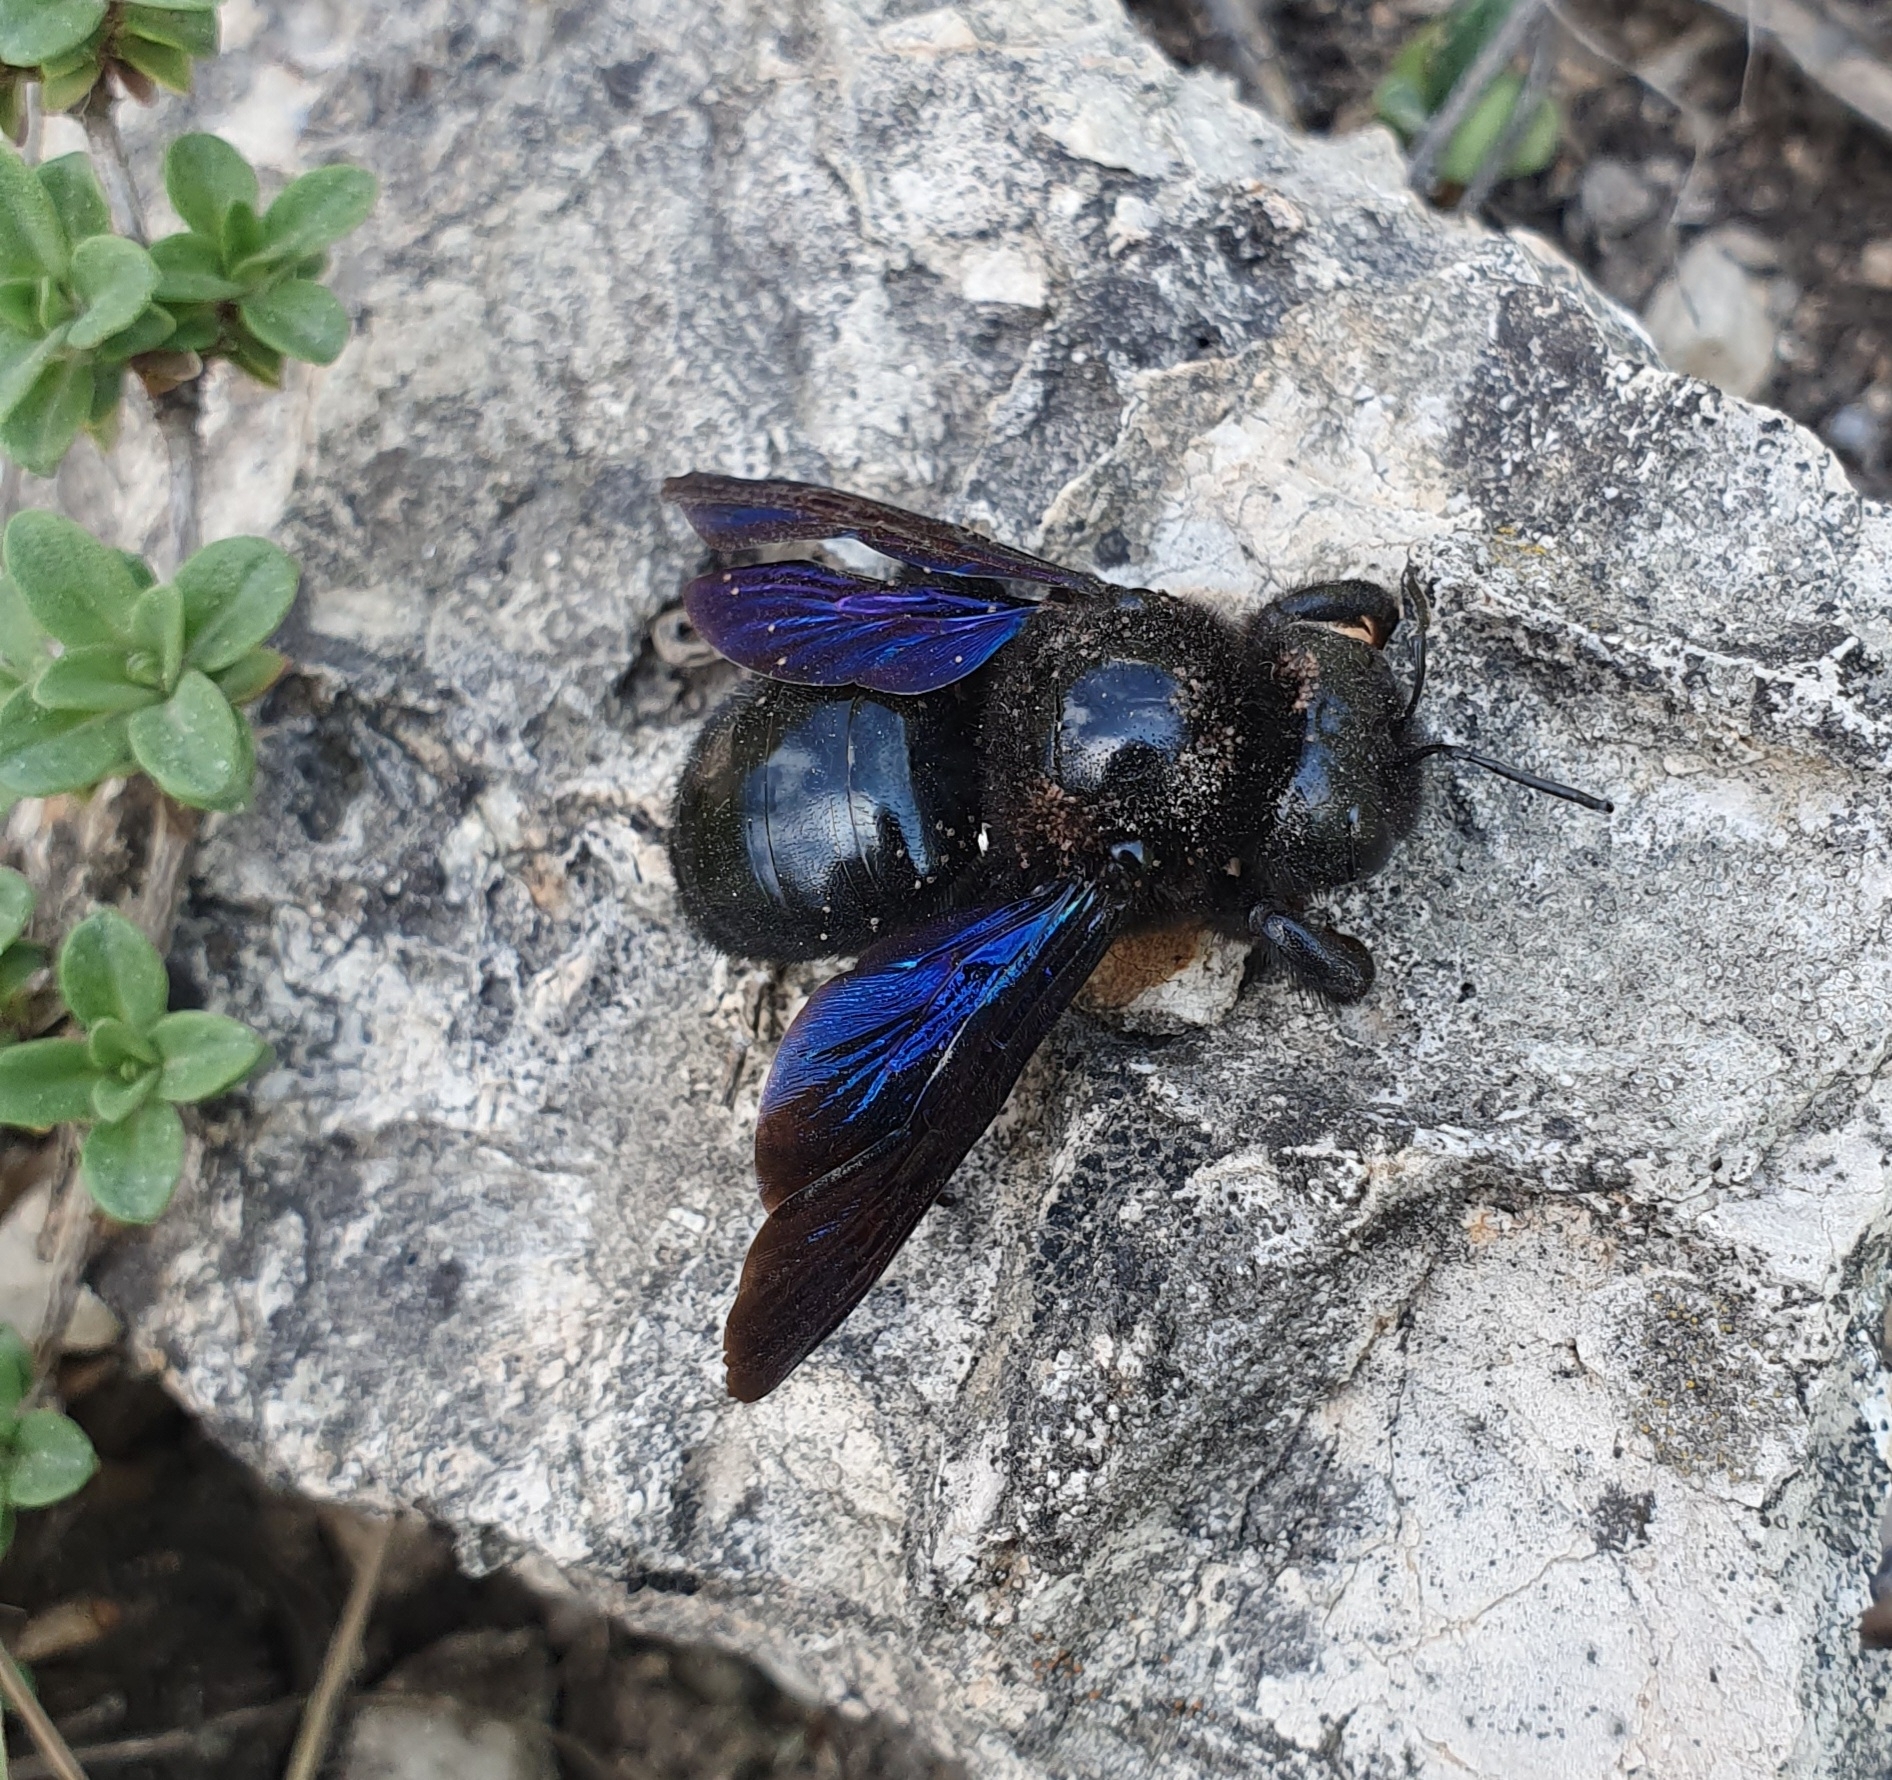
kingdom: Animalia
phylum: Arthropoda
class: Insecta
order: Hymenoptera
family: Apidae
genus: Xylocopa
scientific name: Xylocopa valga
